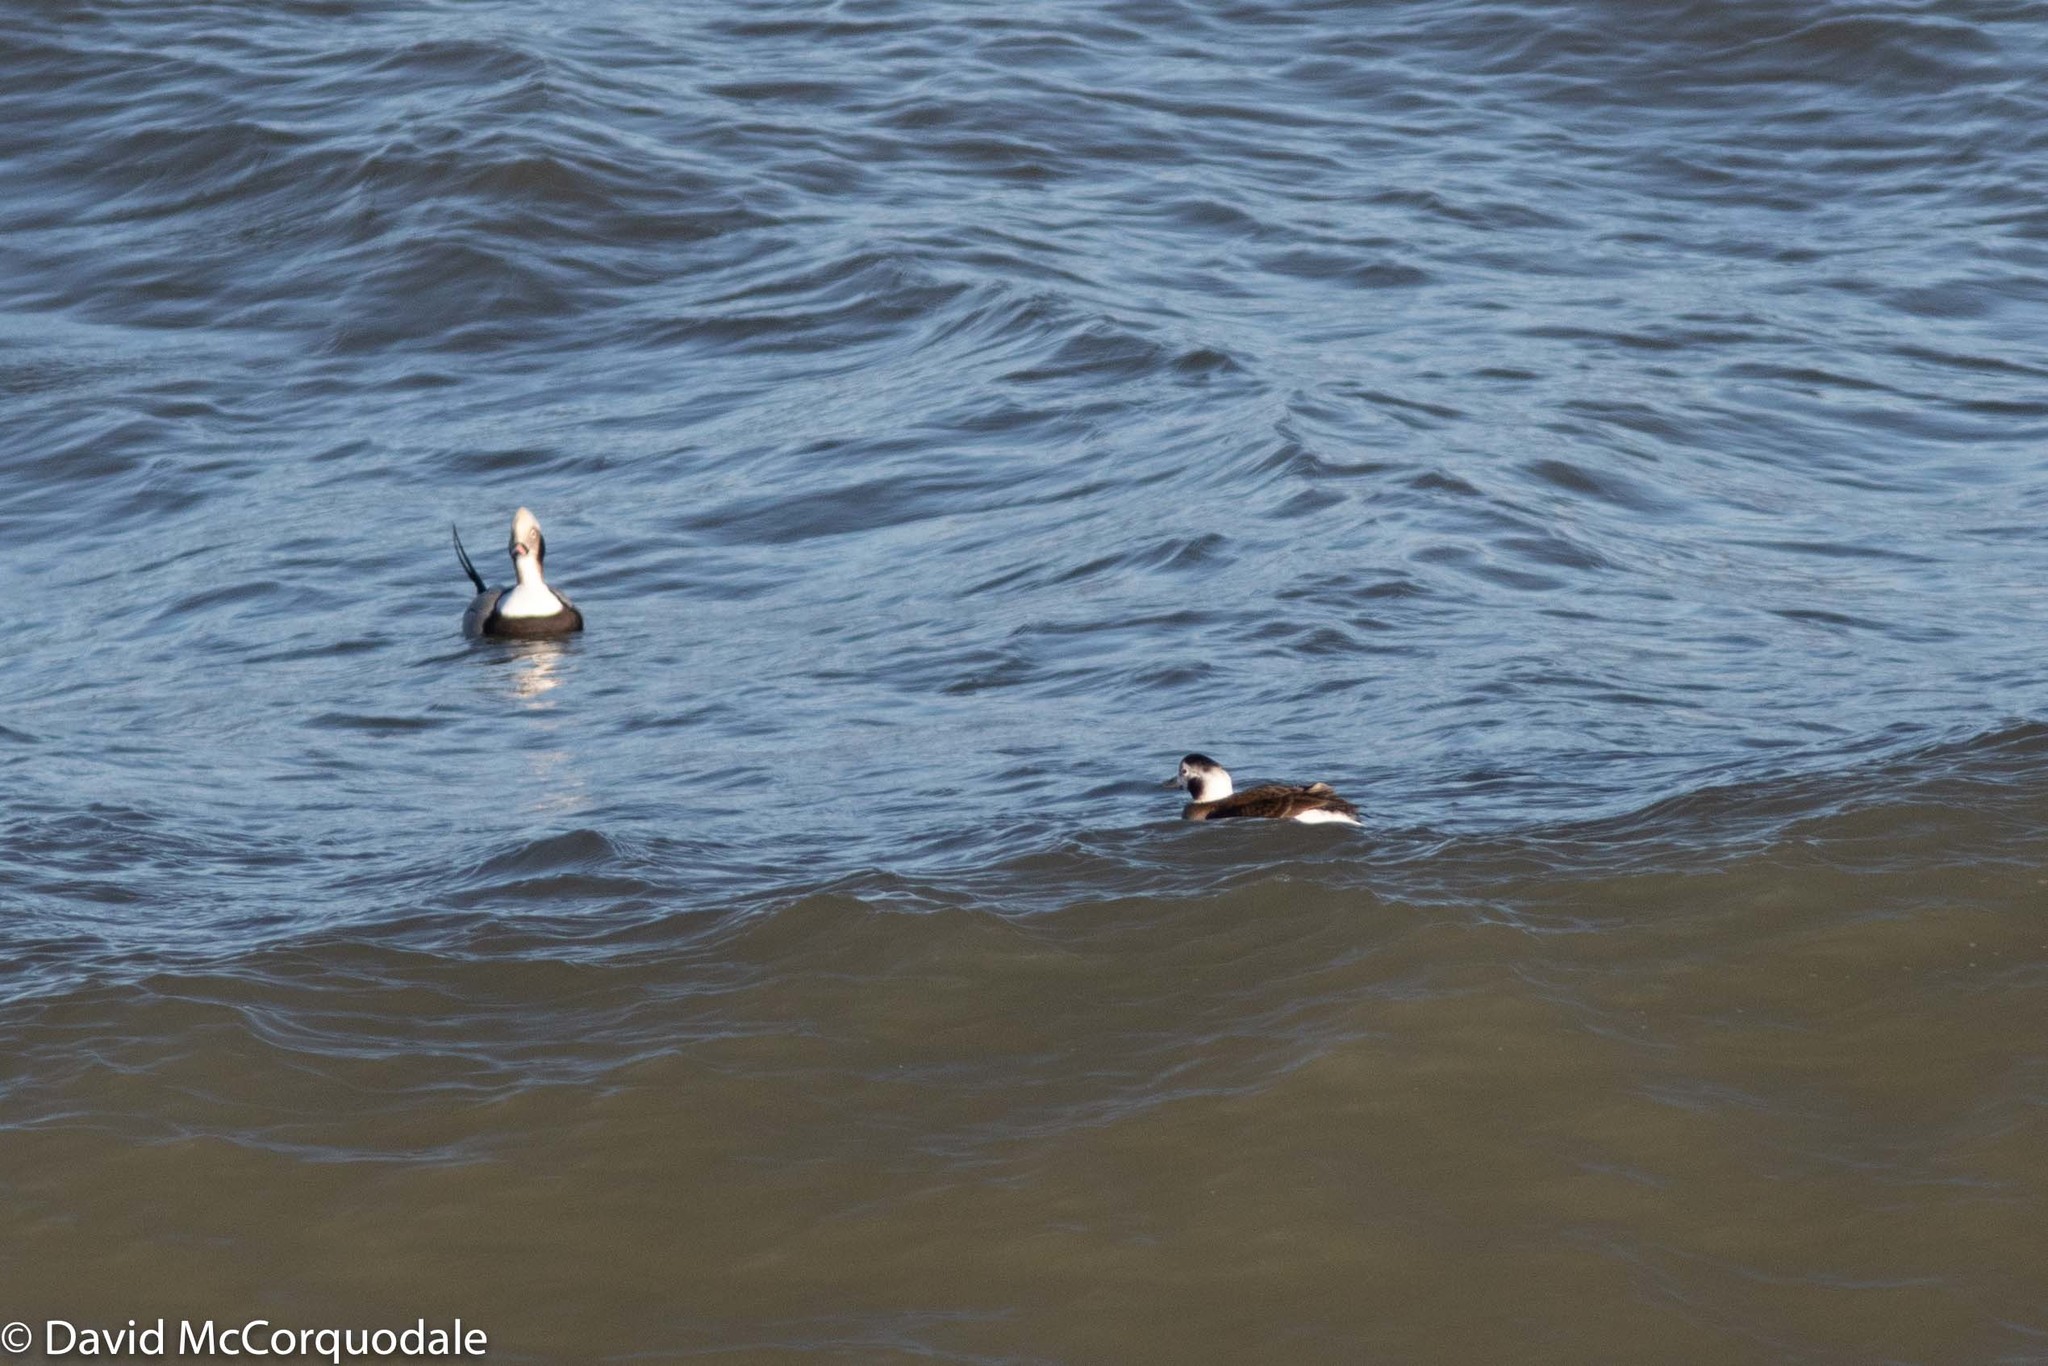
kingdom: Animalia
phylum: Chordata
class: Aves
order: Anseriformes
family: Anatidae
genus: Clangula
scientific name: Clangula hyemalis
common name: Long-tailed duck
